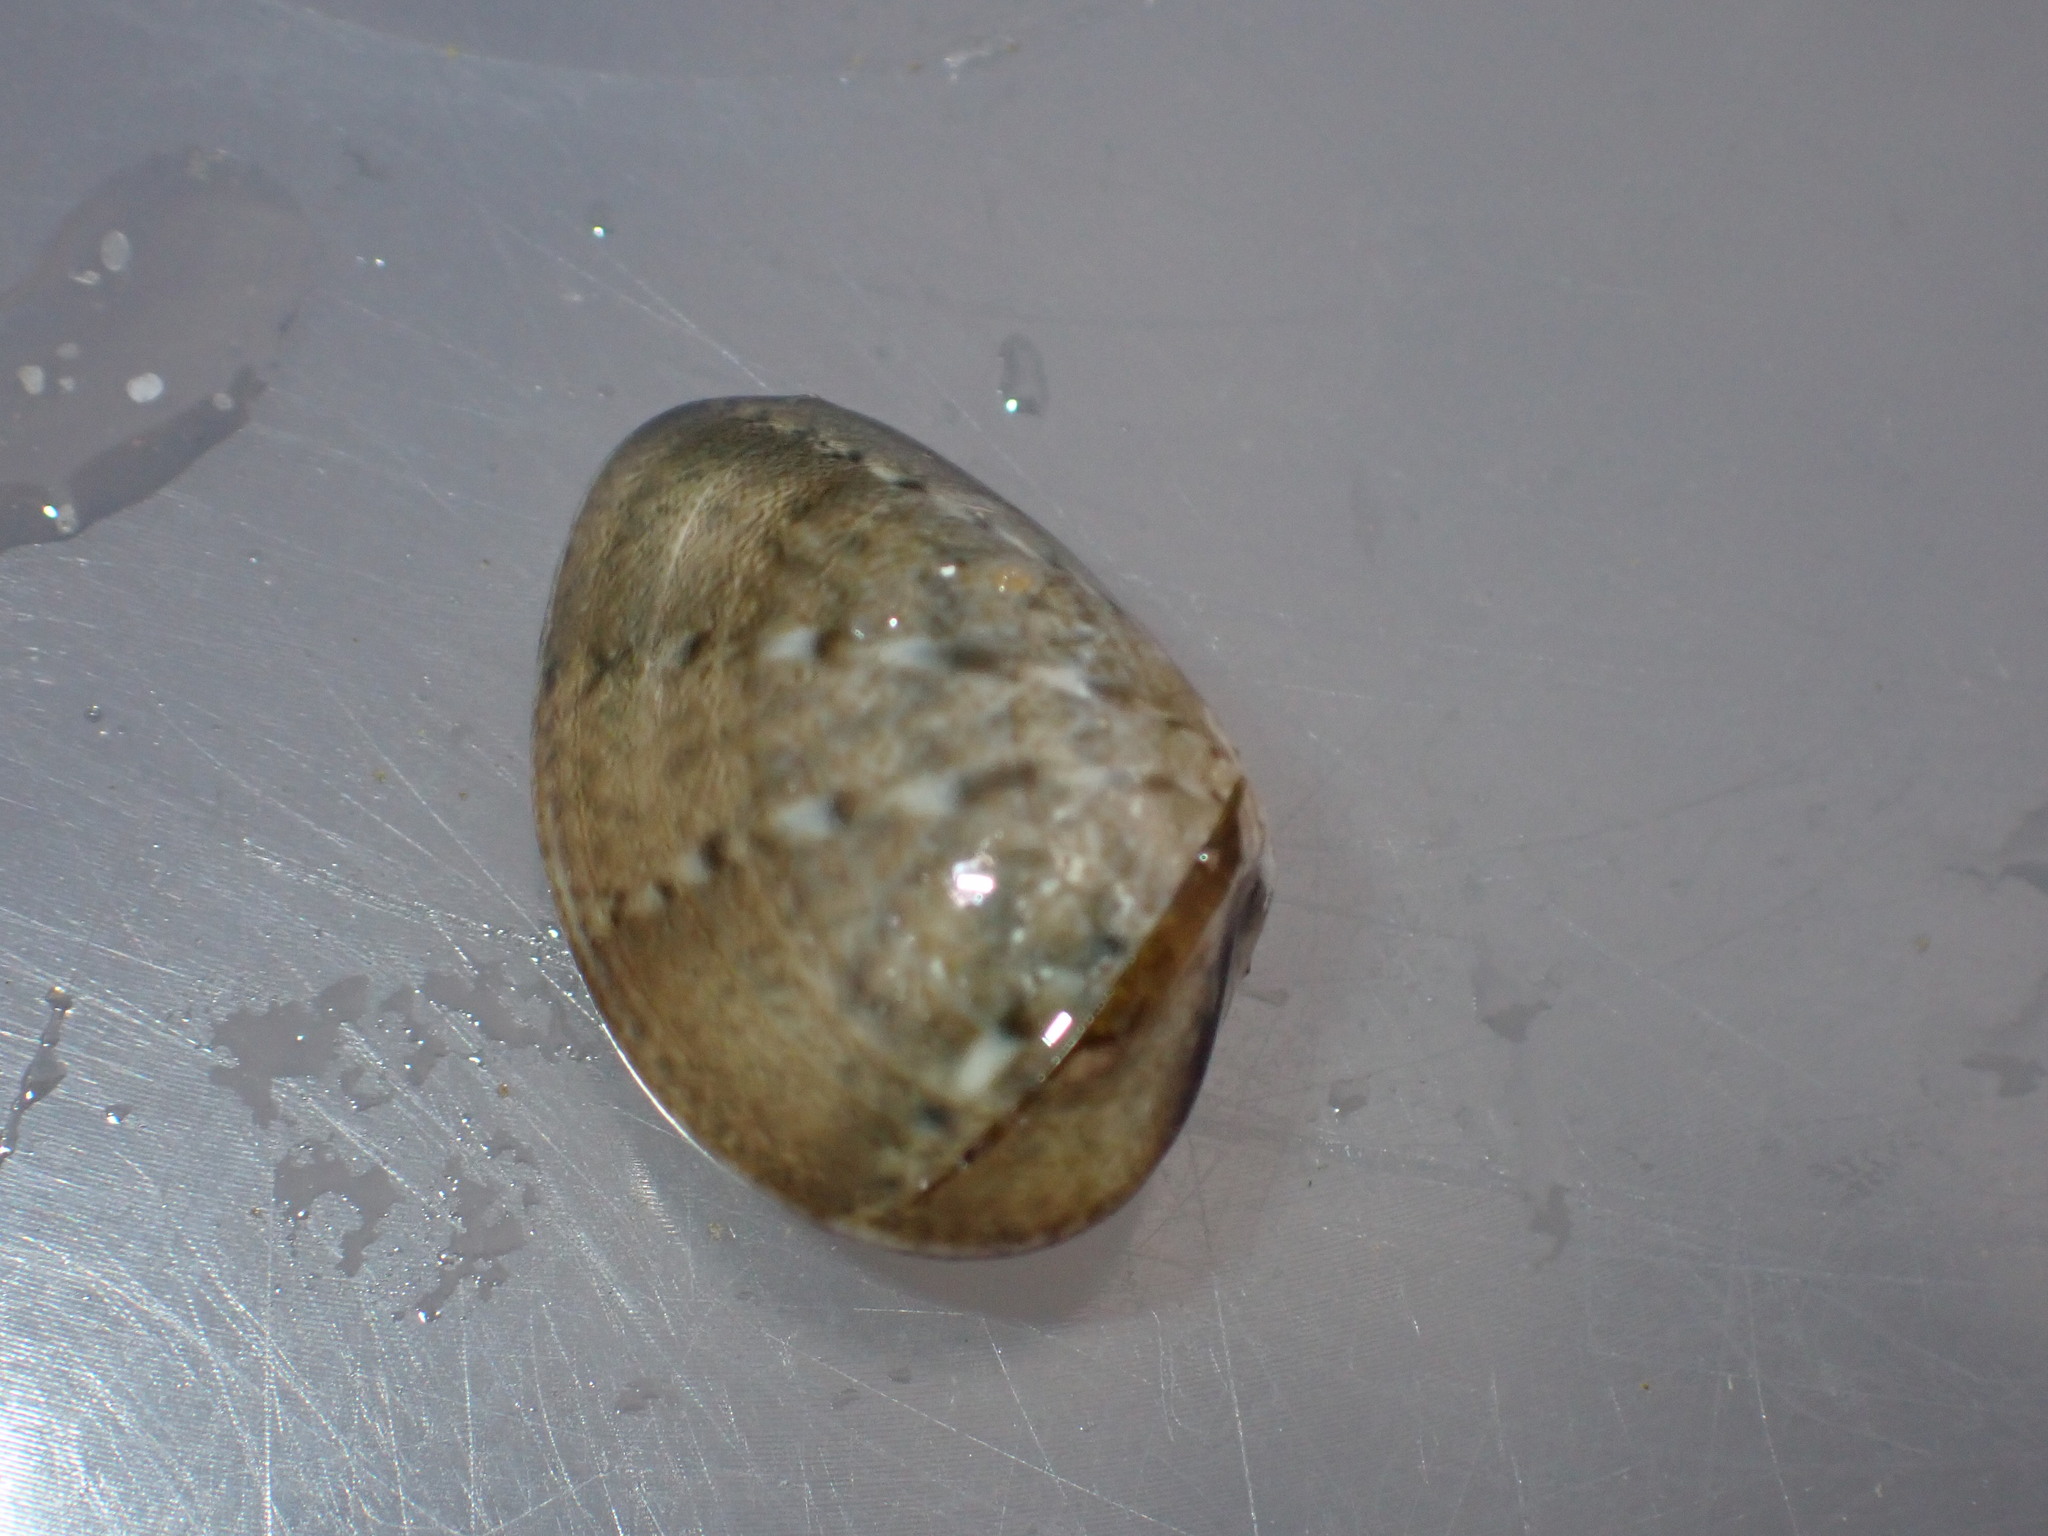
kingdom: Animalia
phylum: Mollusca
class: Bivalvia
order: Venerida
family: Veneridae
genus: Eumarcia
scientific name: Eumarcia fumigata
